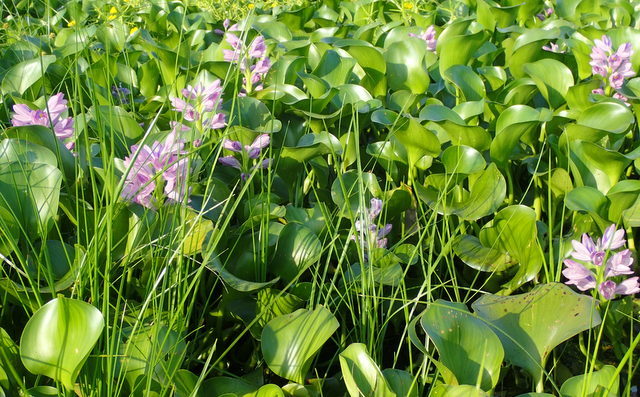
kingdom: Plantae
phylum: Tracheophyta
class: Liliopsida
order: Commelinales
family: Pontederiaceae
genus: Pontederia
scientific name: Pontederia crassipes
